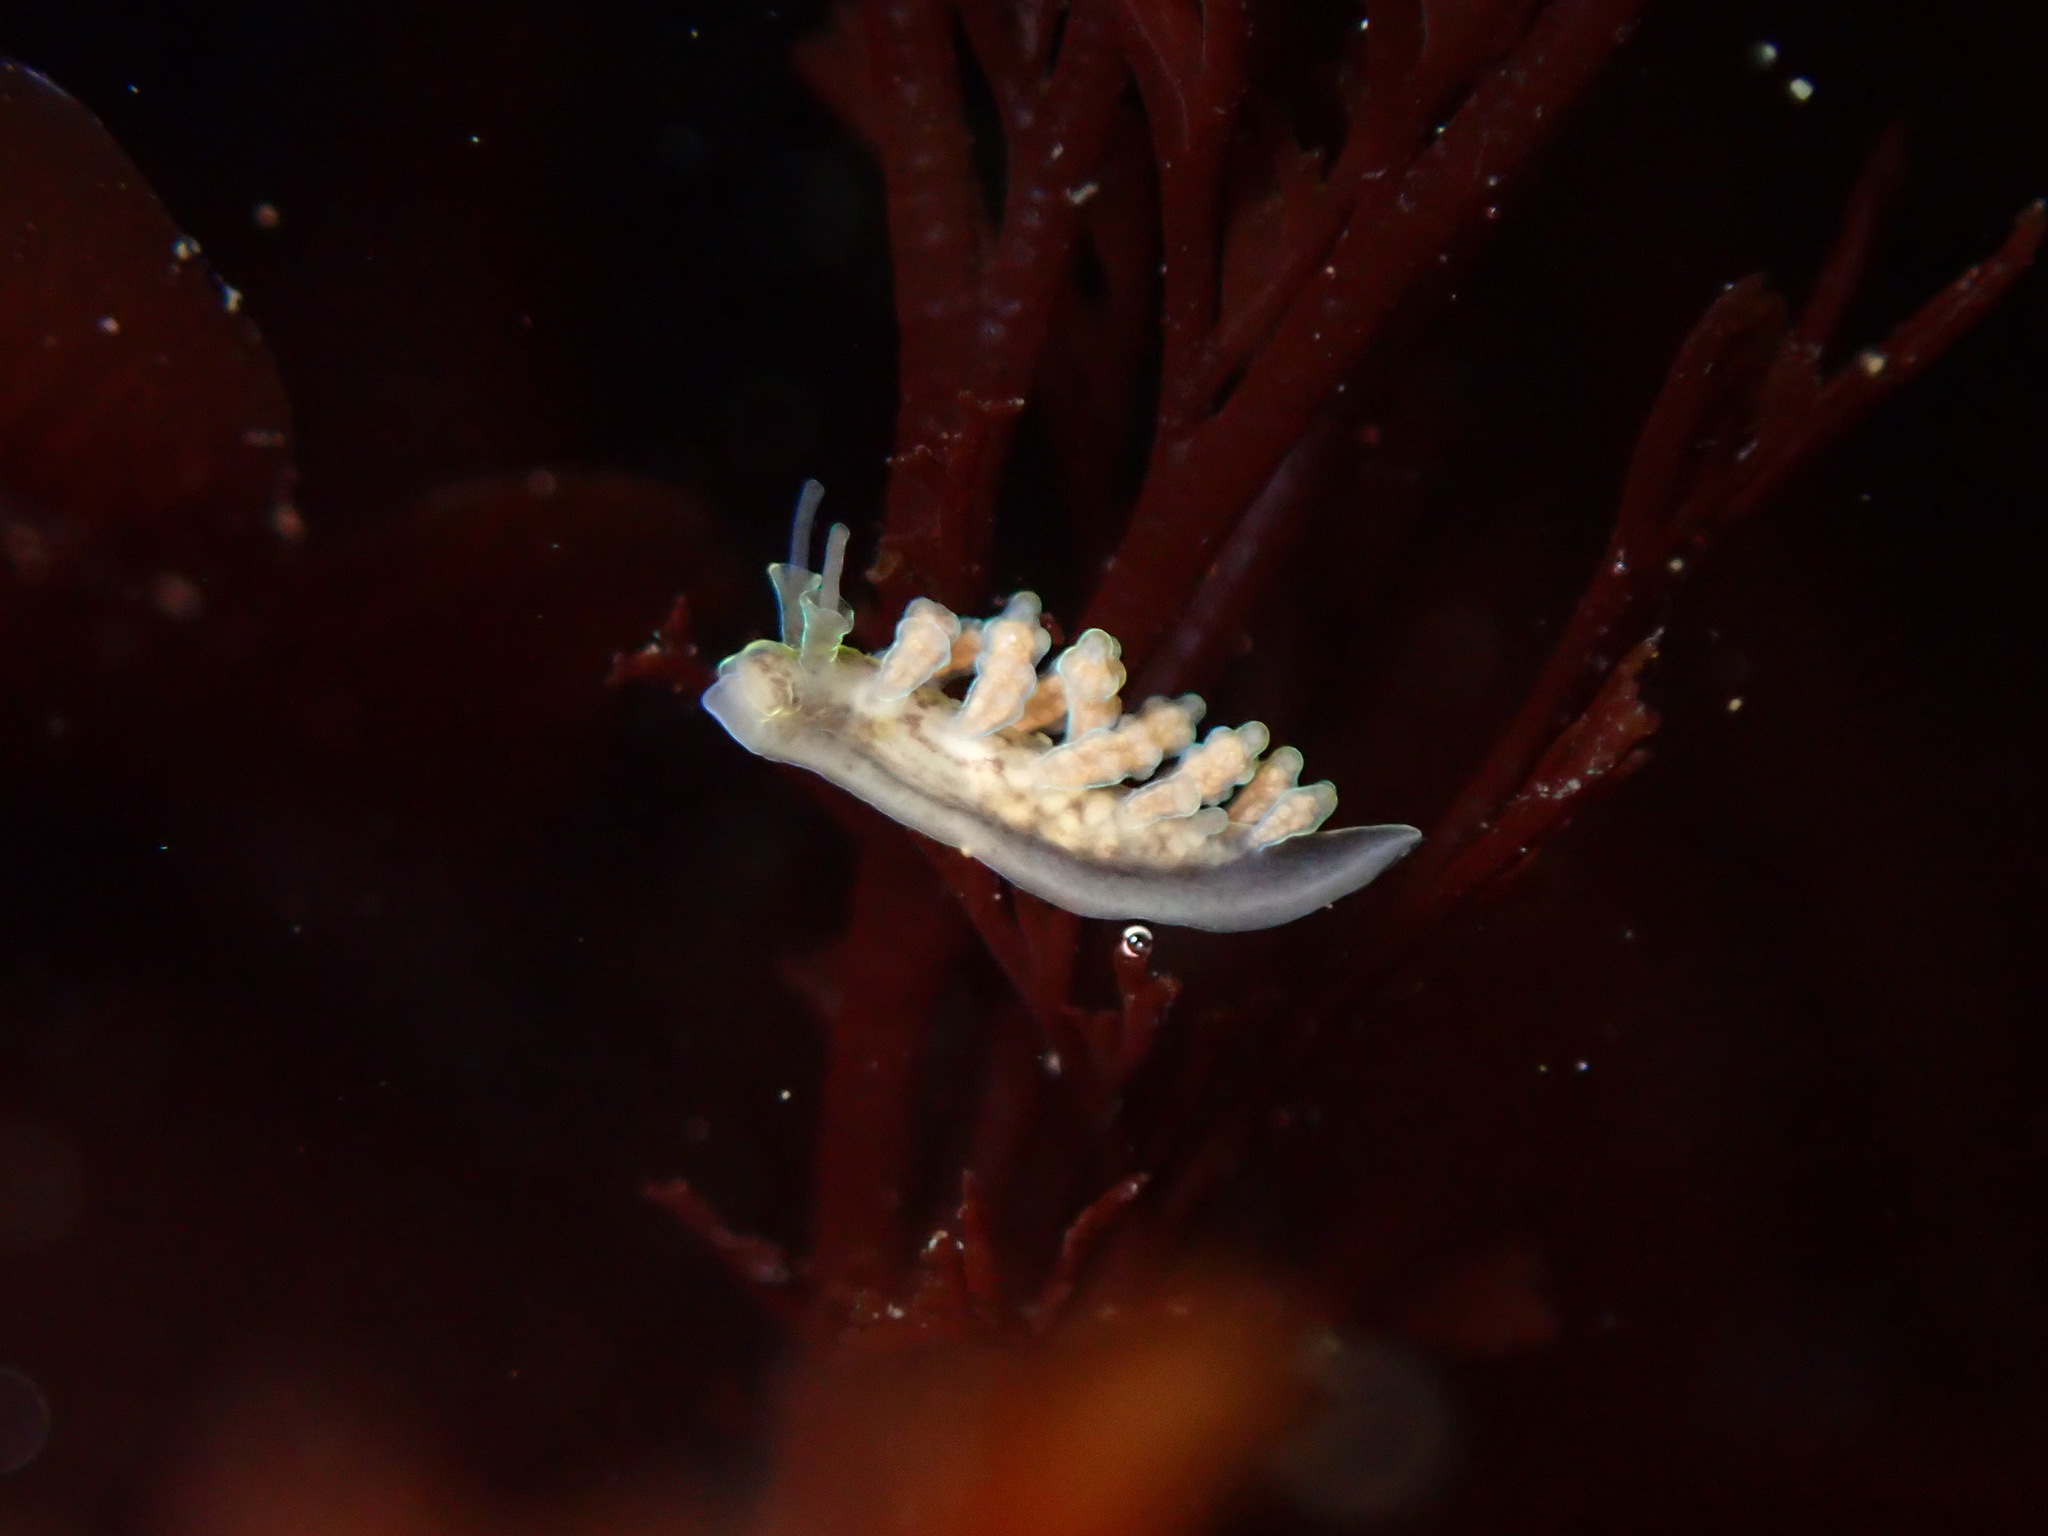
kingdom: Animalia
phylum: Mollusca
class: Gastropoda
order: Nudibranchia
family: Dotidae
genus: Doto
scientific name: Doto columbiana
